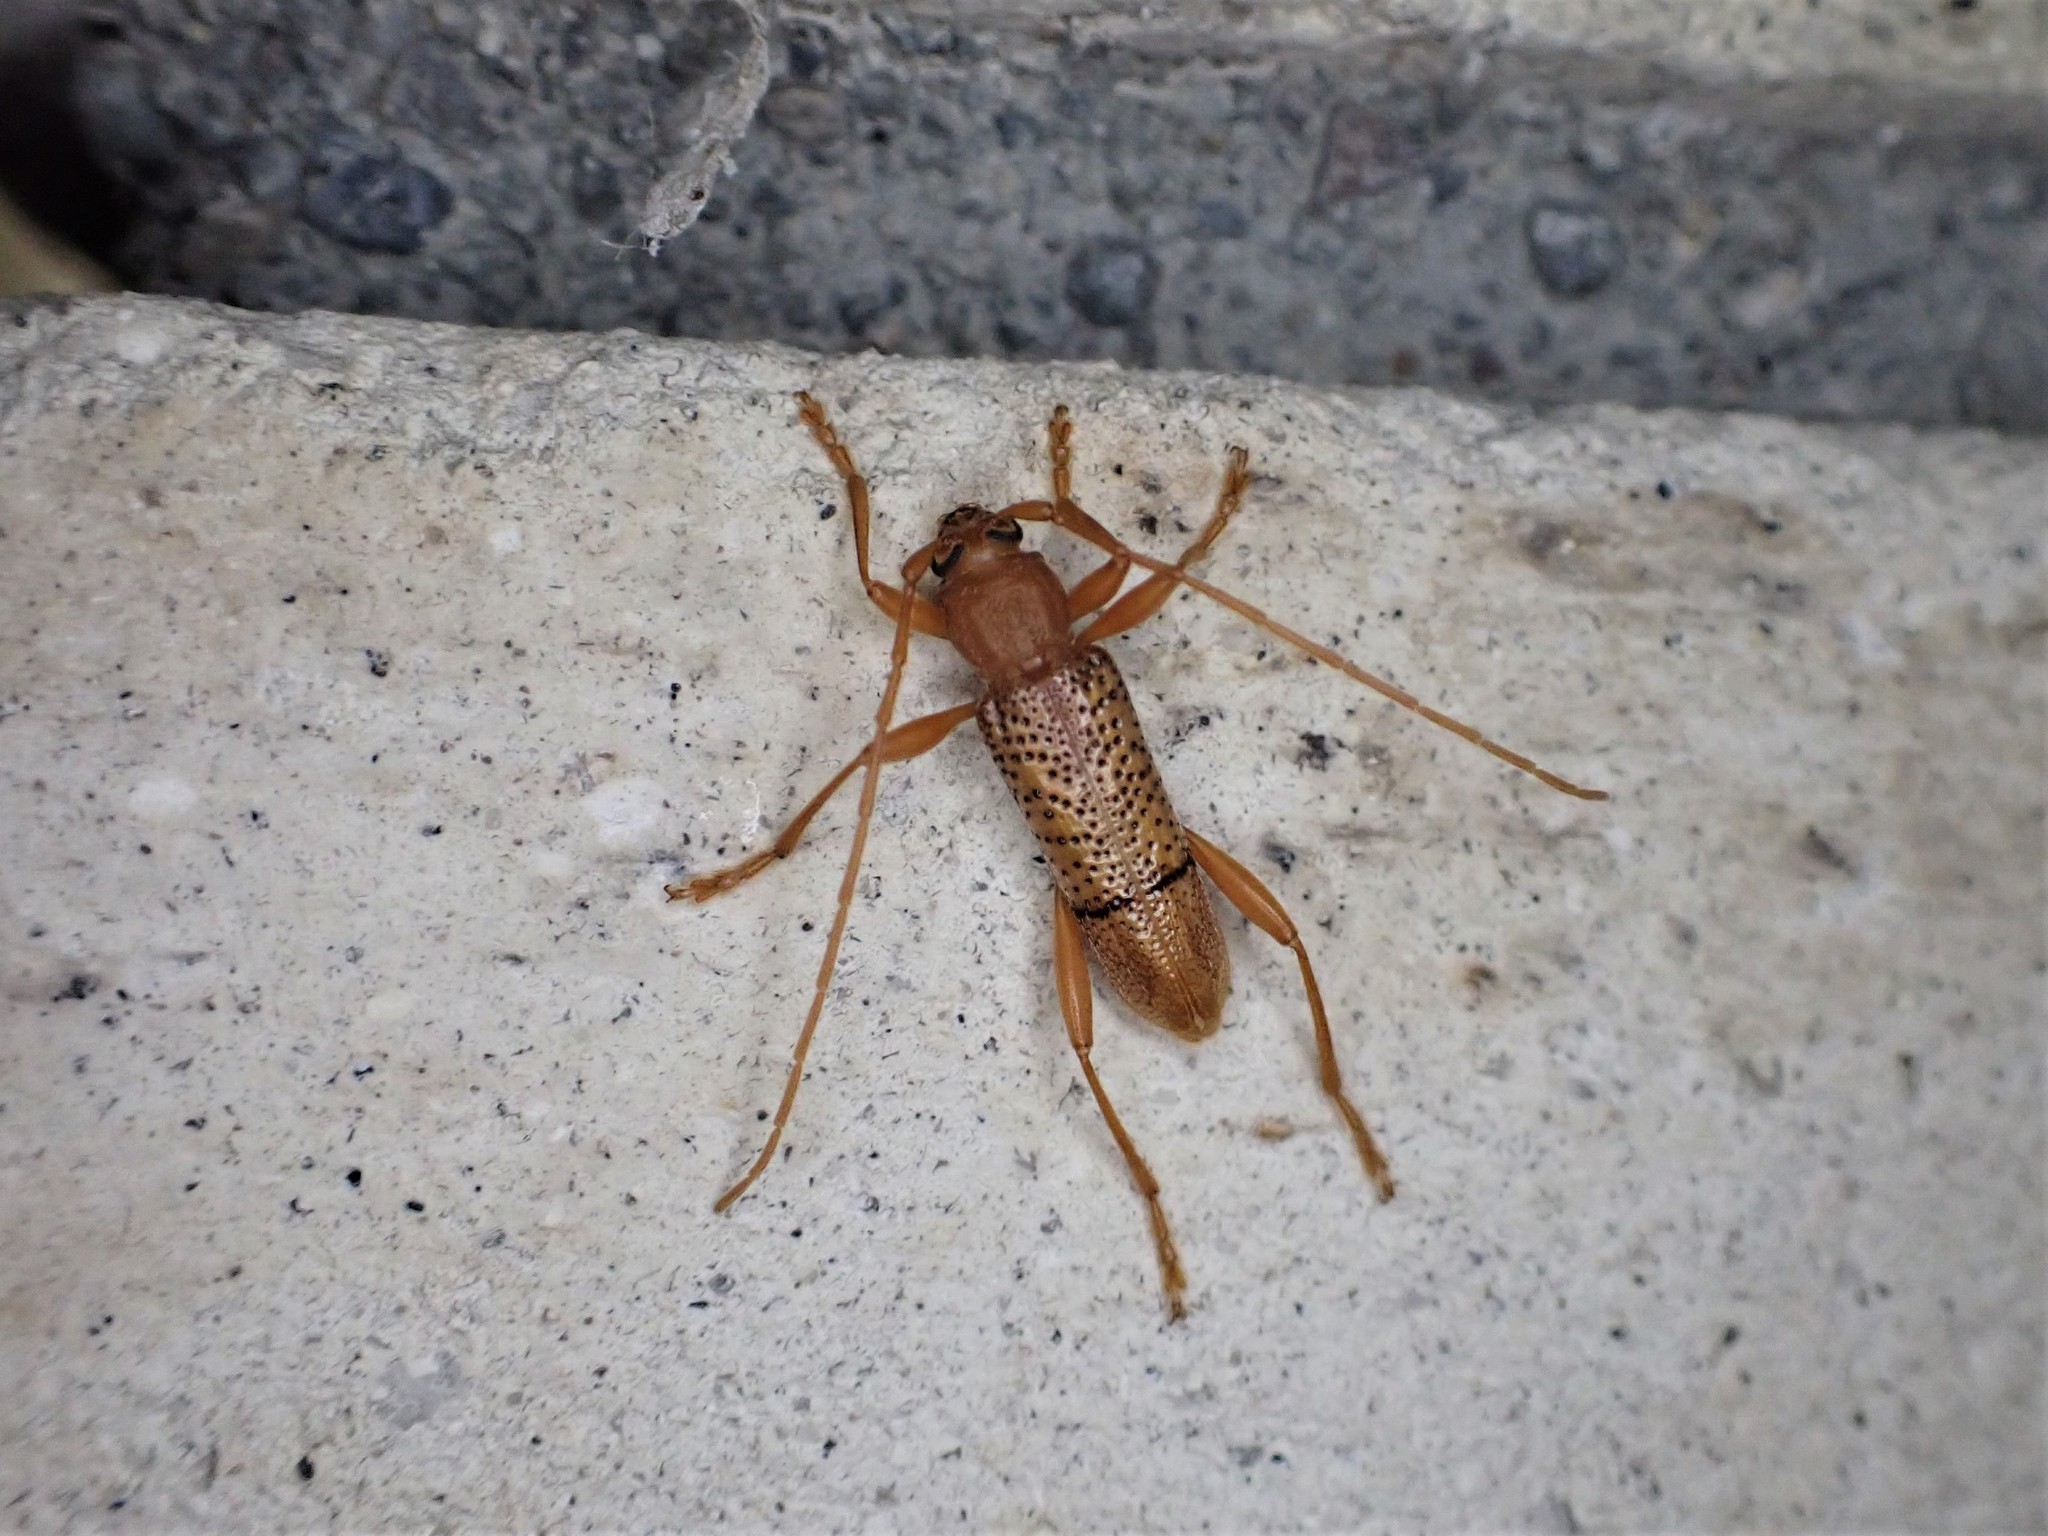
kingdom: Animalia
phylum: Arthropoda
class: Insecta
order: Coleoptera
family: Cerambycidae
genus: Xuthodes
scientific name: Xuthodes punctipennis
